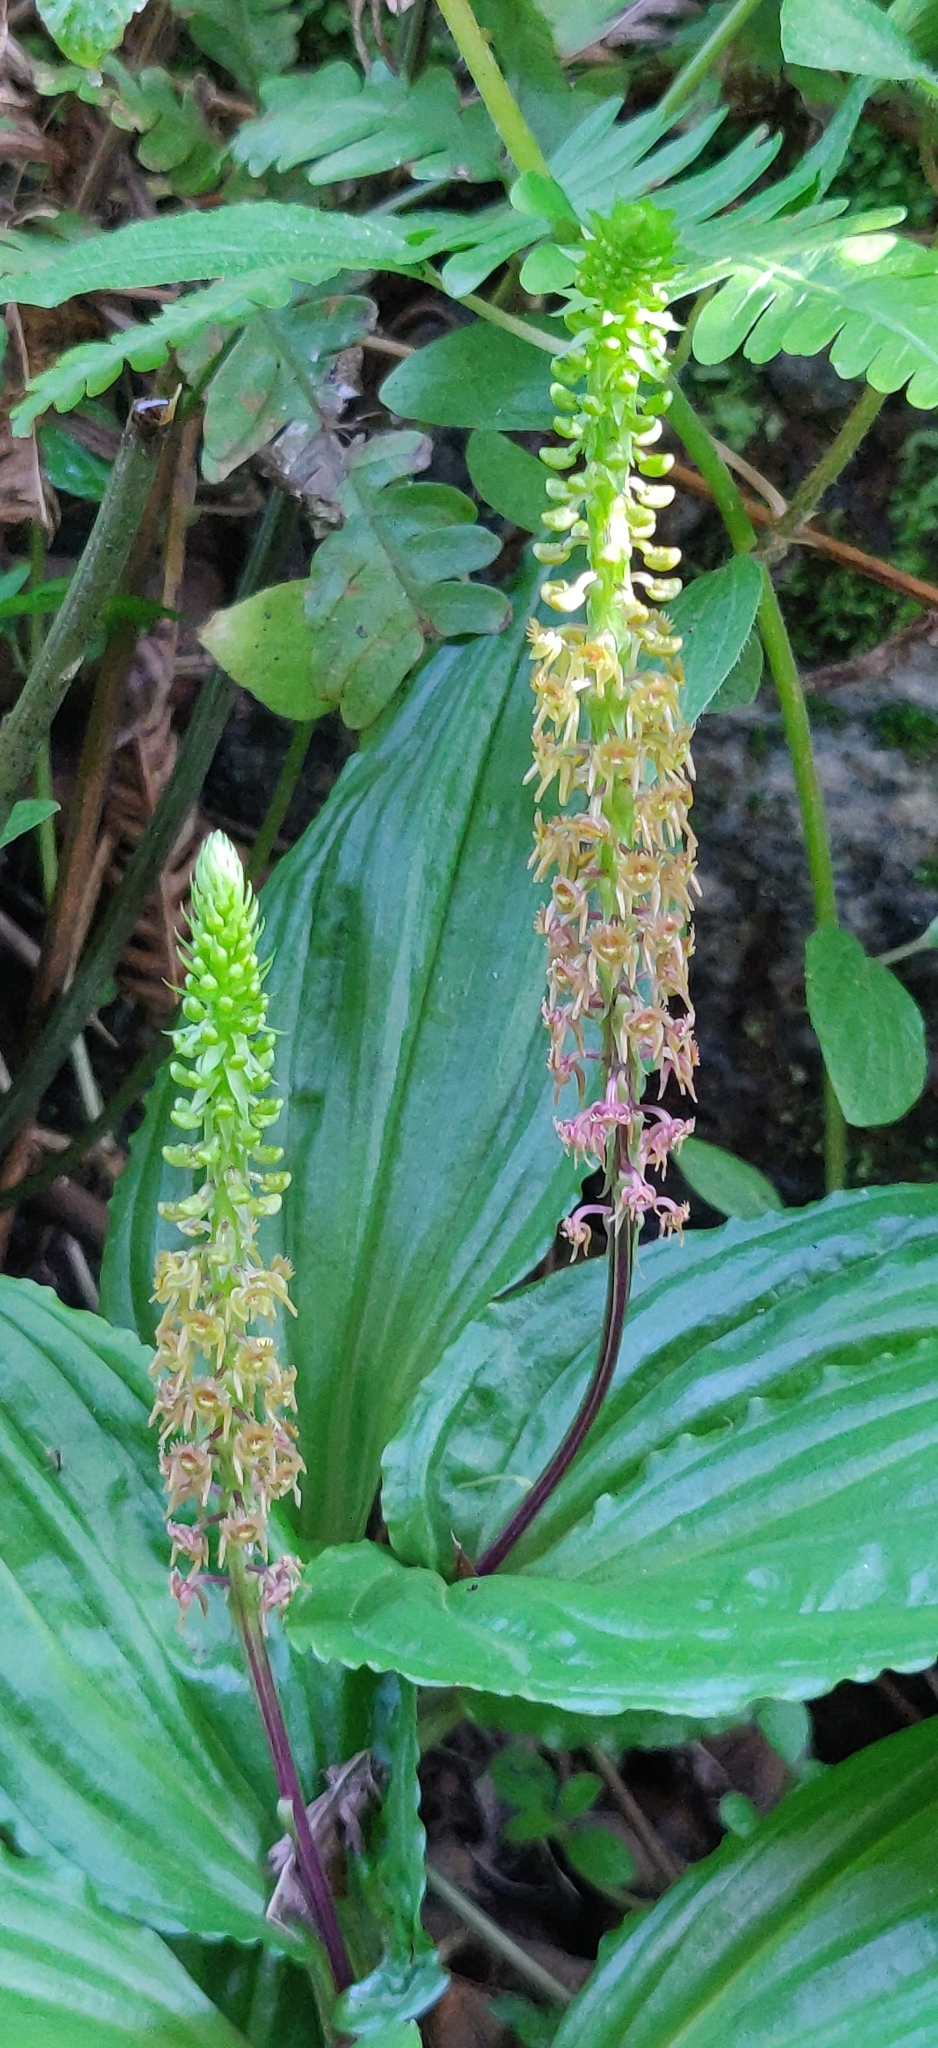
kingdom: Plantae
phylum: Tracheophyta
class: Liliopsida
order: Asparagales
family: Orchidaceae
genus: Malaxis
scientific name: Malaxis versicolor
